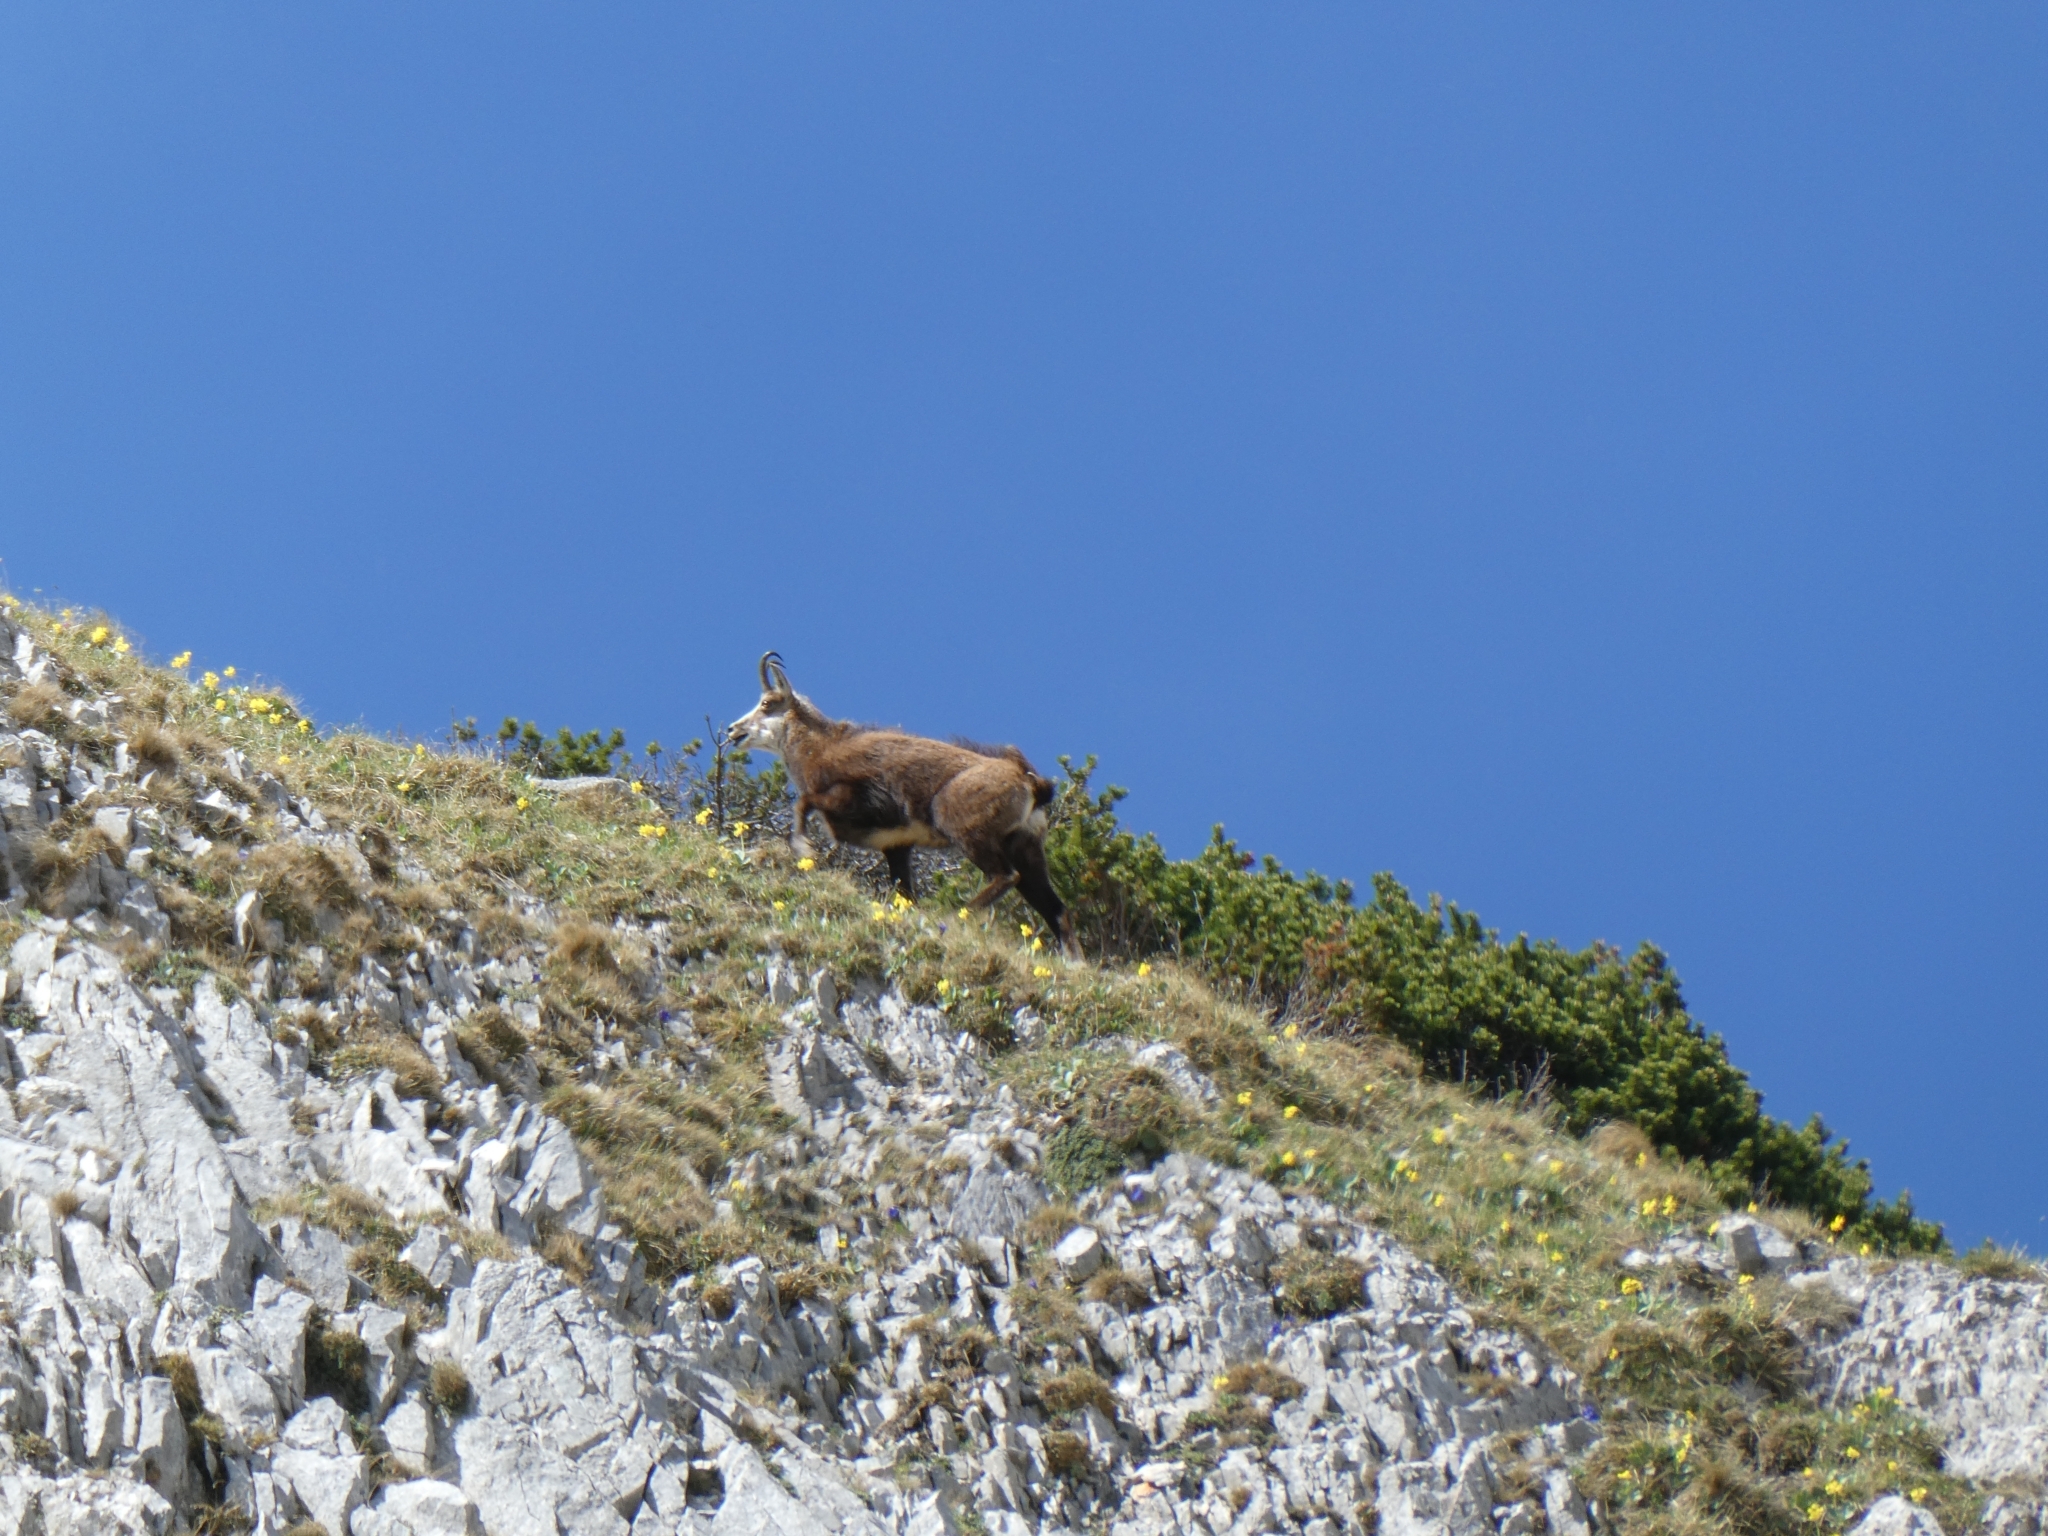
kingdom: Animalia
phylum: Chordata
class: Mammalia
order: Artiodactyla
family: Bovidae
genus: Rupicapra
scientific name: Rupicapra rupicapra
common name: Chamois
